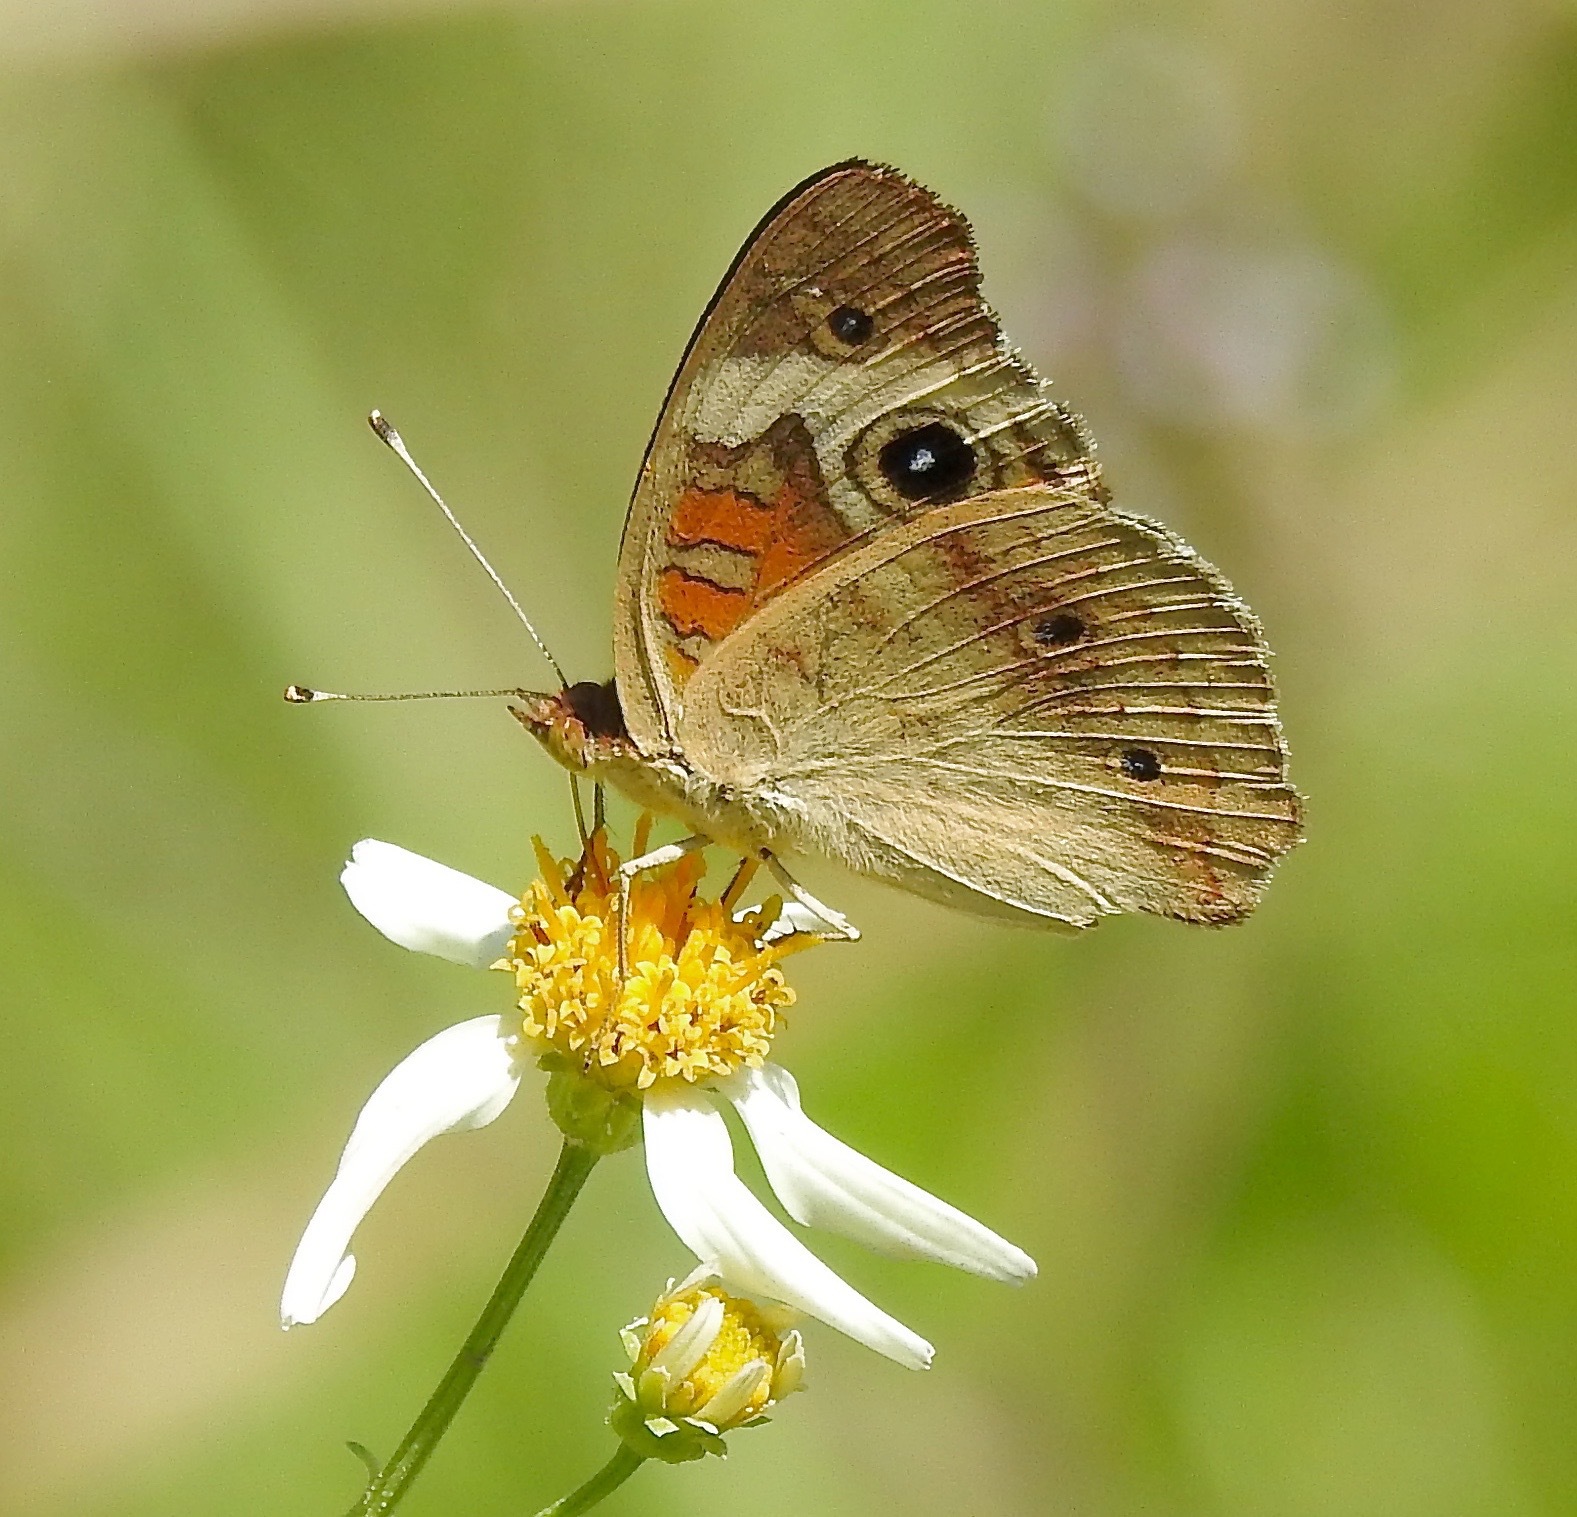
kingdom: Animalia
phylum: Arthropoda
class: Insecta
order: Lepidoptera
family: Nymphalidae
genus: Junonia
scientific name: Junonia coenia
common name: Common buckeye
